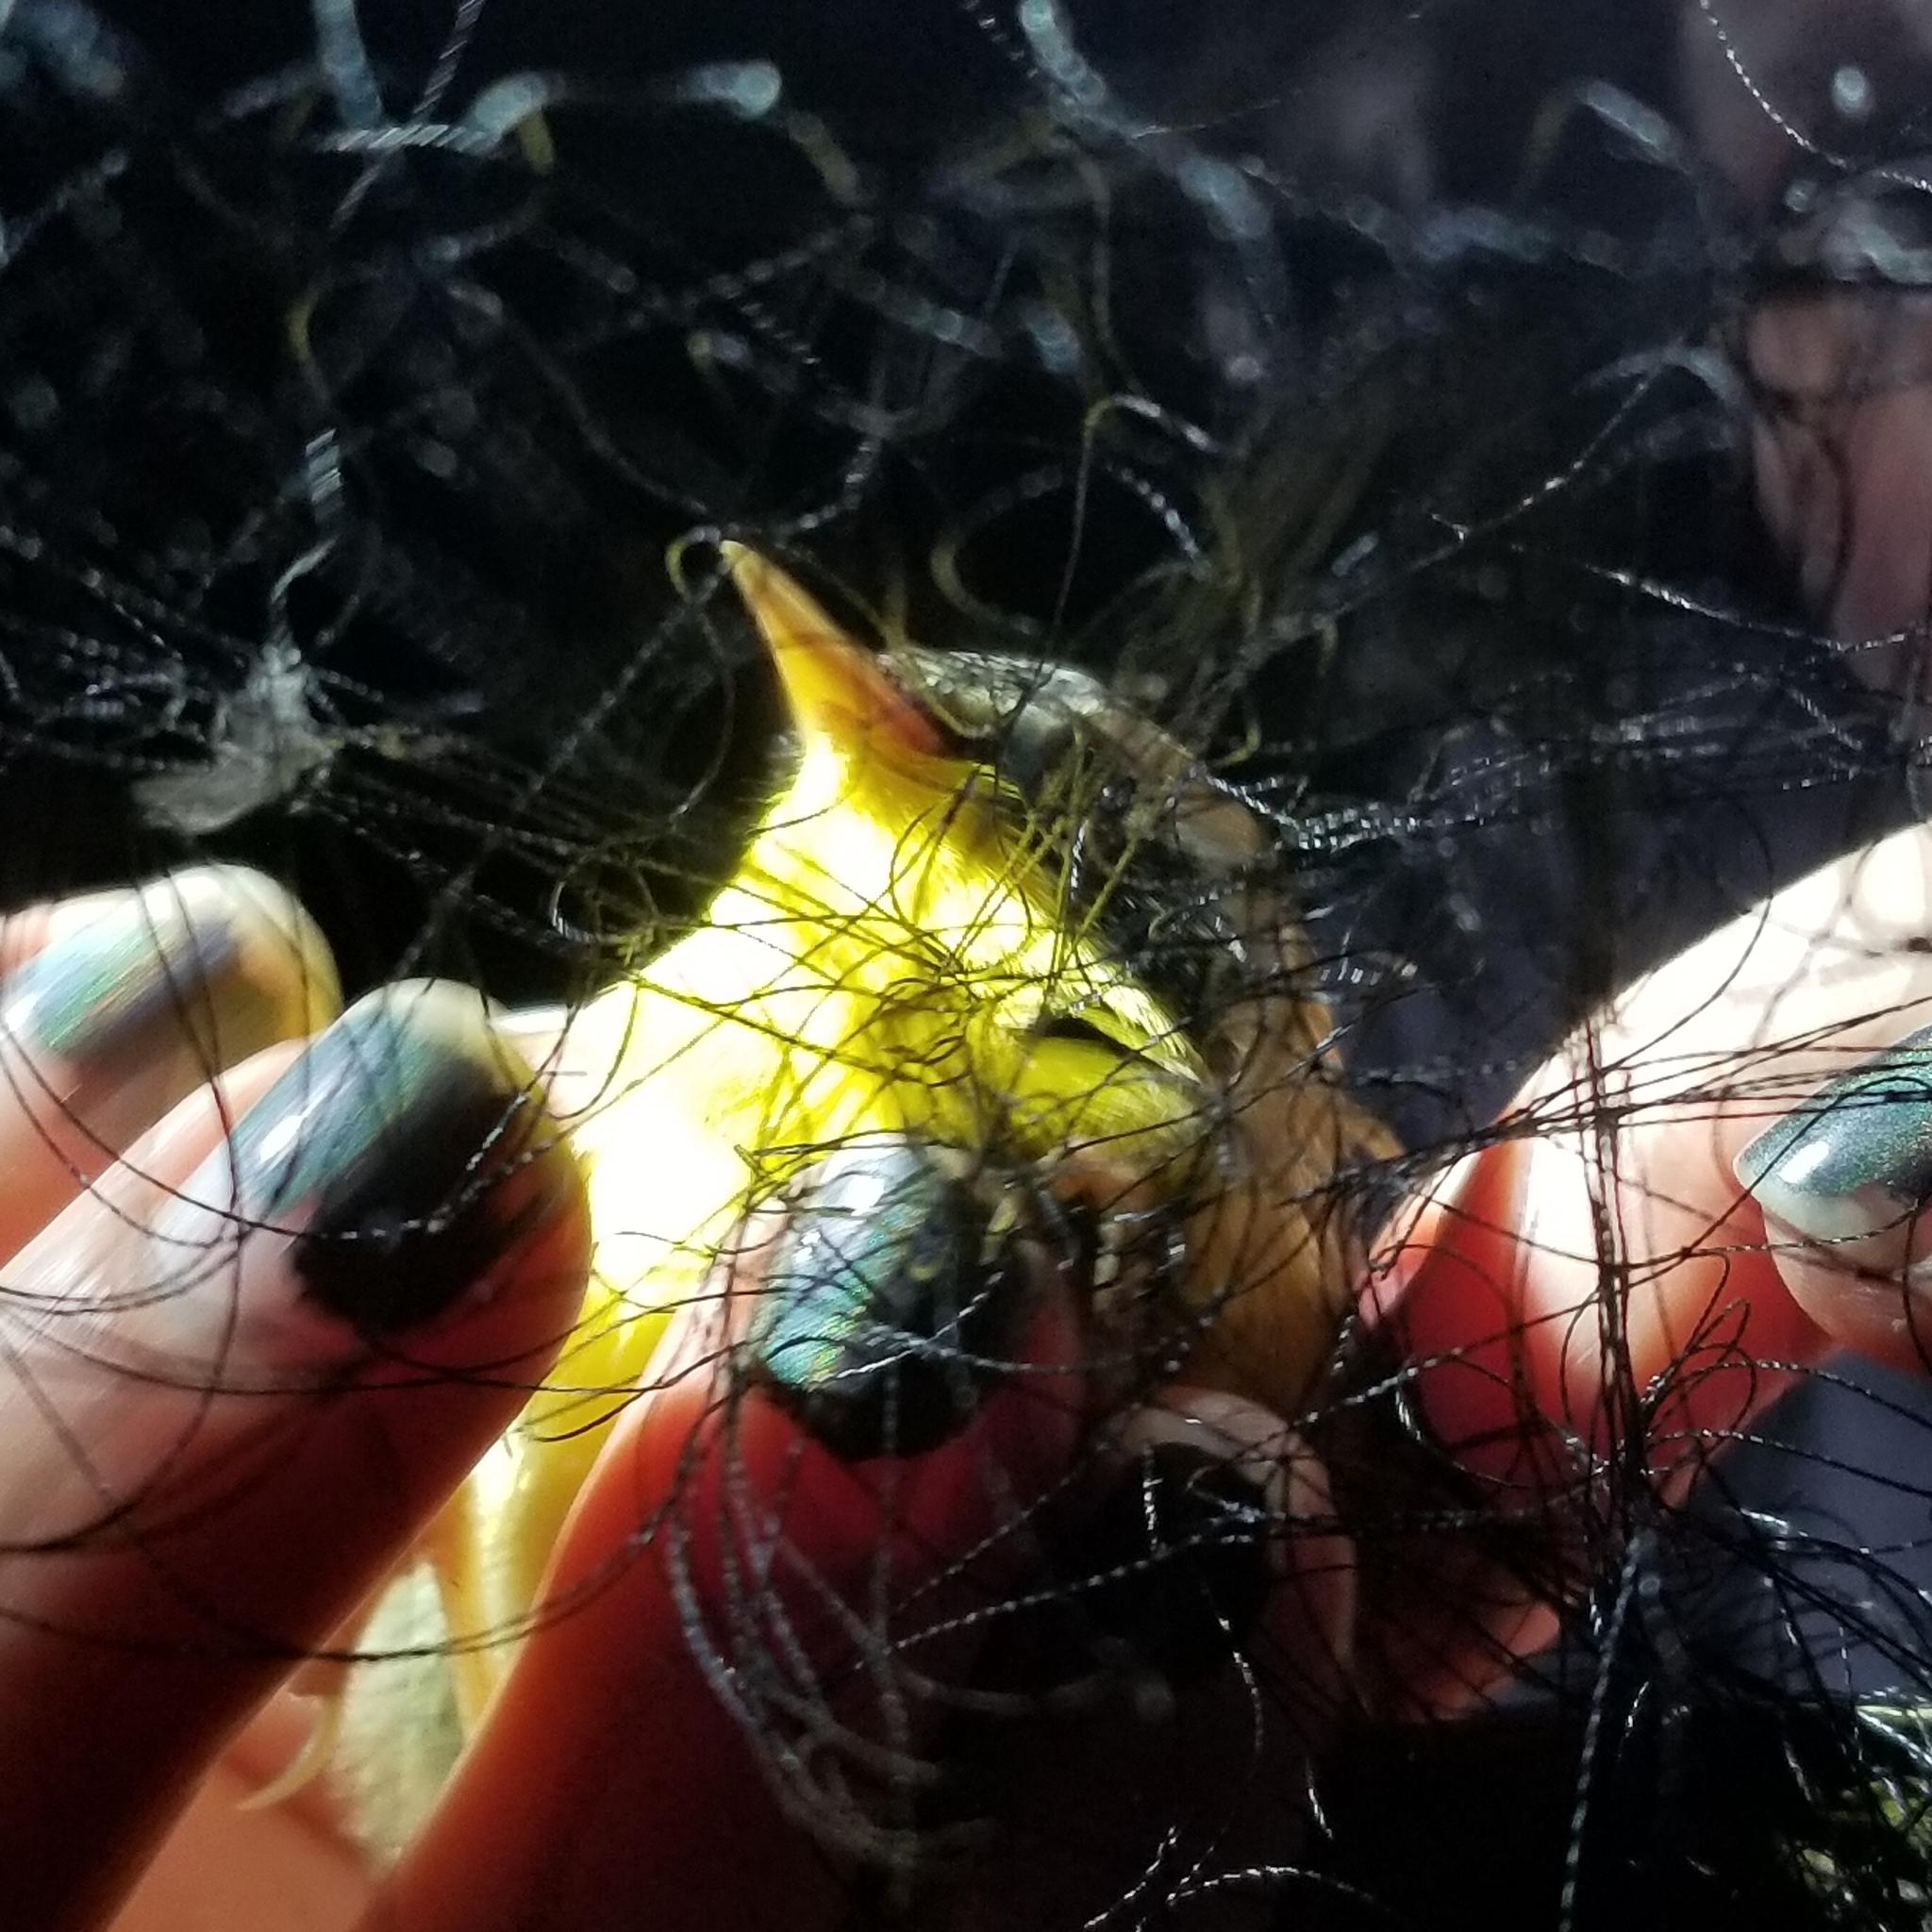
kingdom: Animalia
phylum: Chordata
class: Aves
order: Passeriformes
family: Parulidae
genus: Geothlypis
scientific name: Geothlypis trichas
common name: Common yellowthroat
